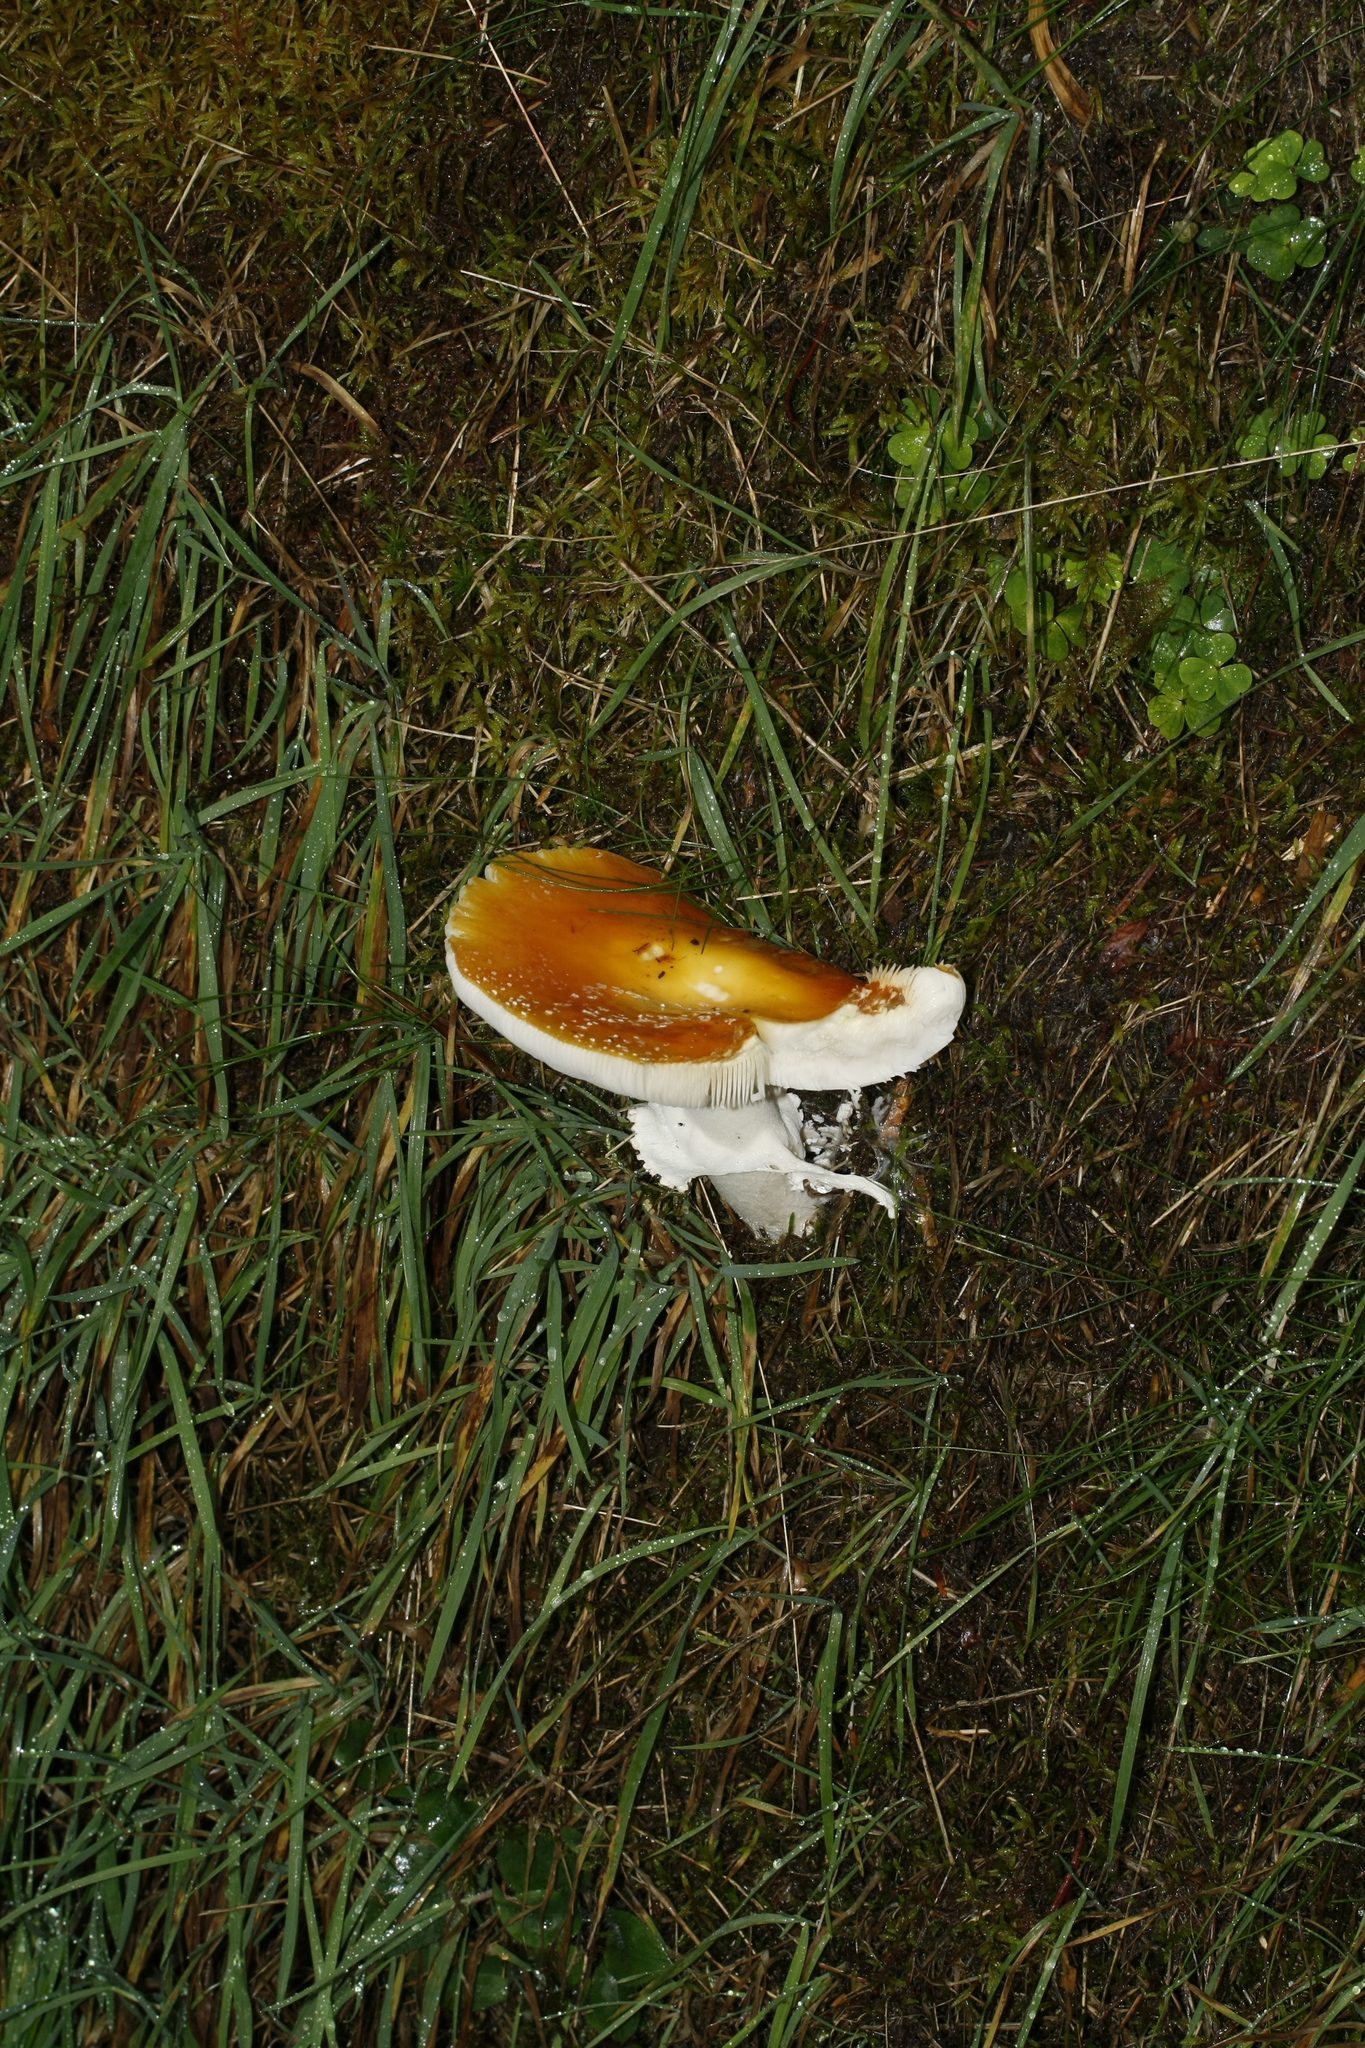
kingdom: Fungi
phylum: Basidiomycota
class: Agaricomycetes
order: Agaricales
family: Amanitaceae
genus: Amanita
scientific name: Amanita muscaria
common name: Fly agaric
